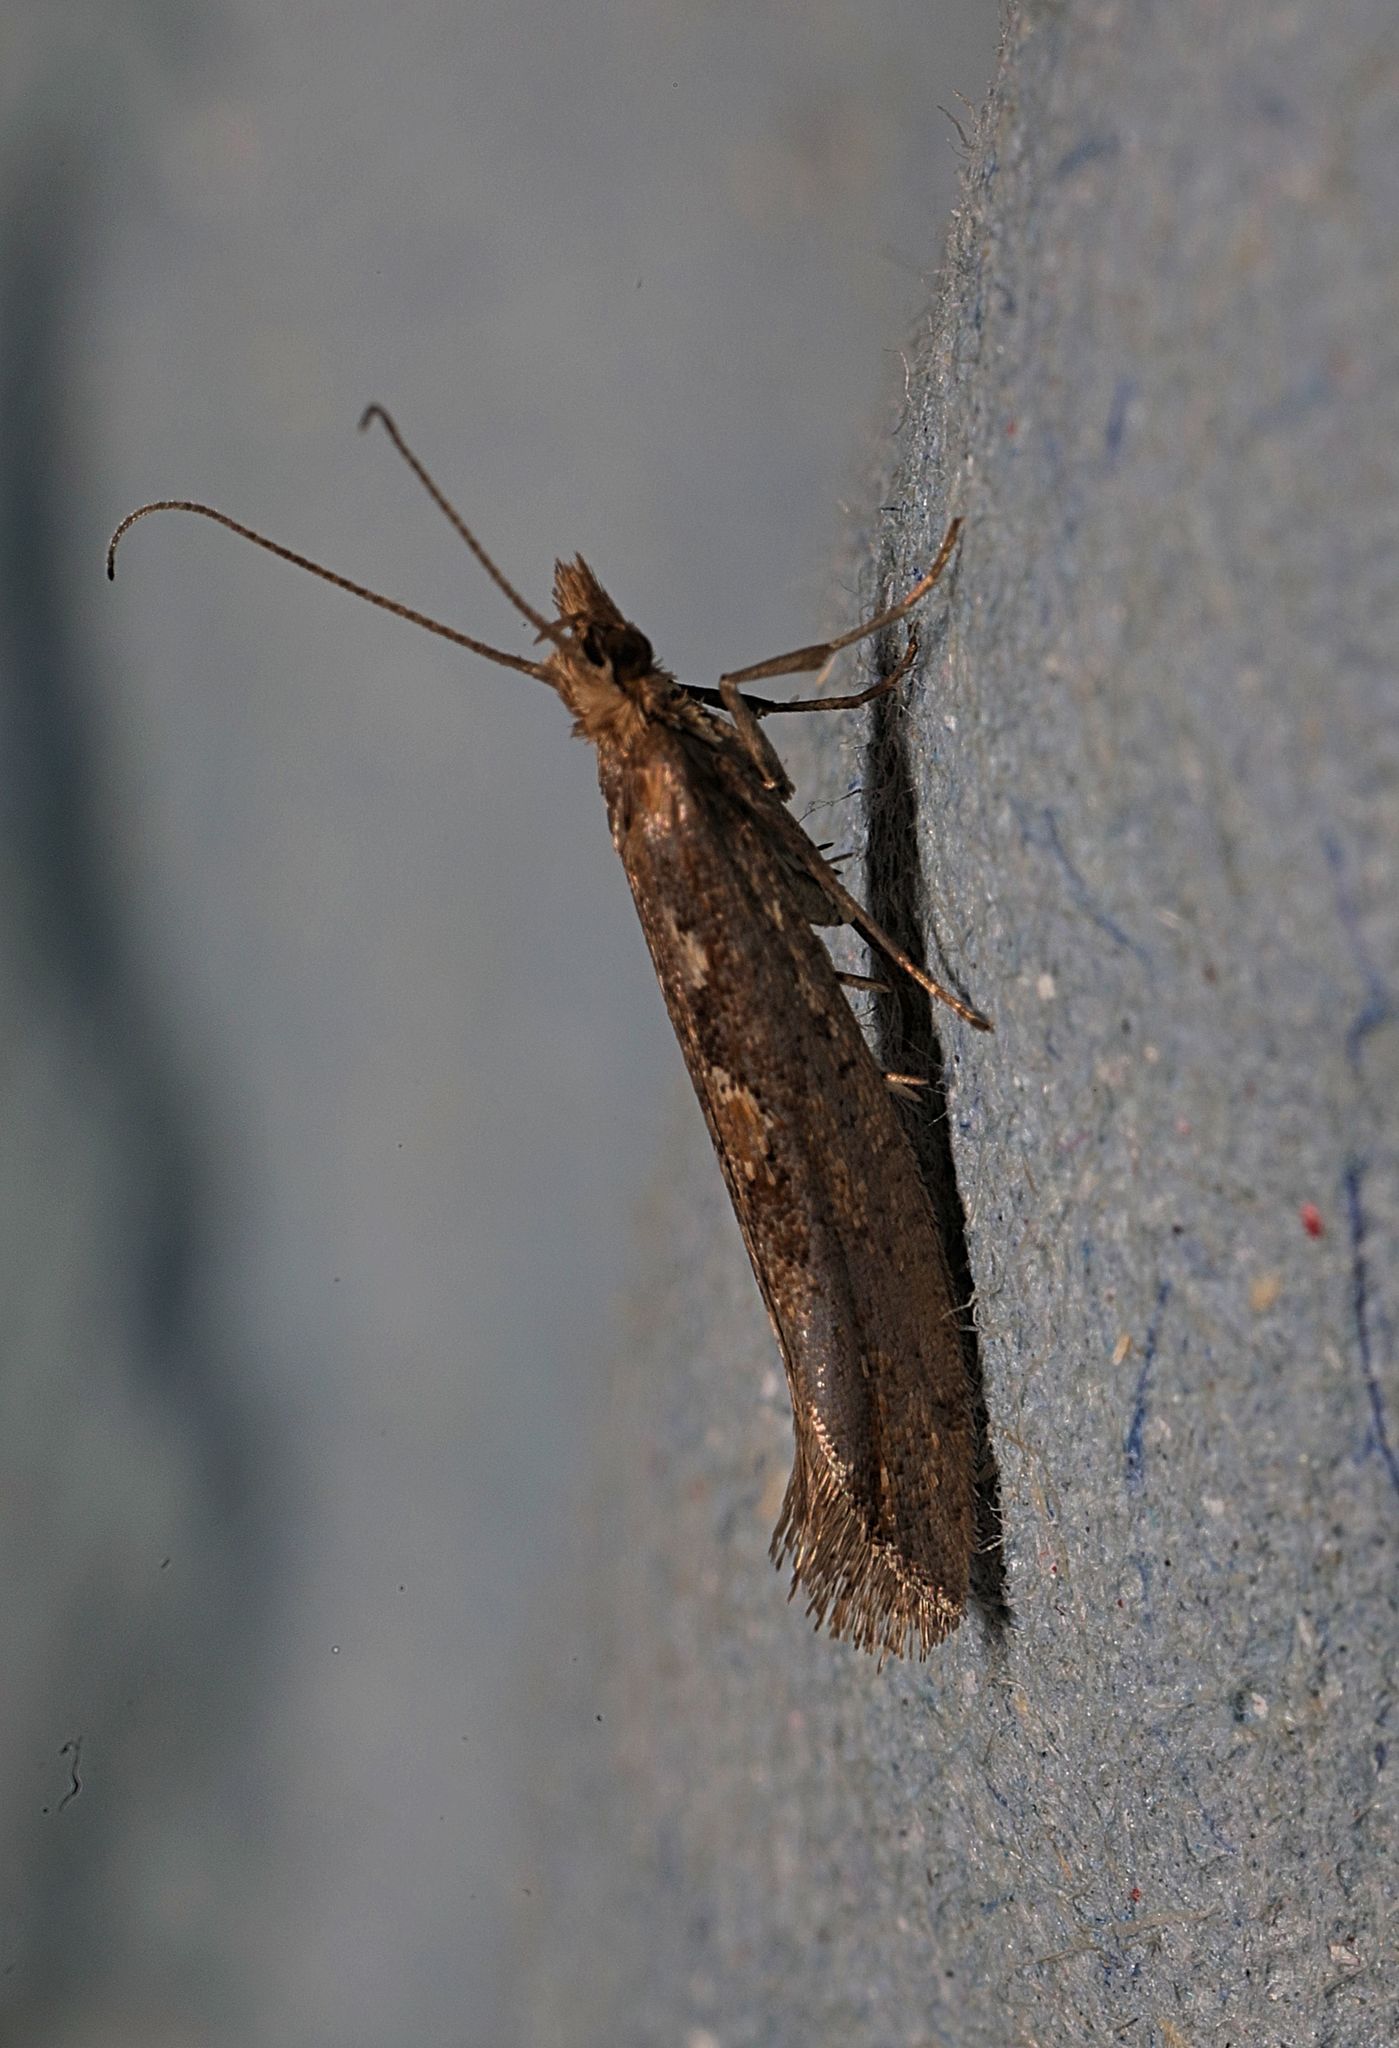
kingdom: Animalia
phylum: Arthropoda
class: Insecta
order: Lepidoptera
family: Plutellidae
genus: Plutella
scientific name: Plutella xylostella
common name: Diamond-back moth
